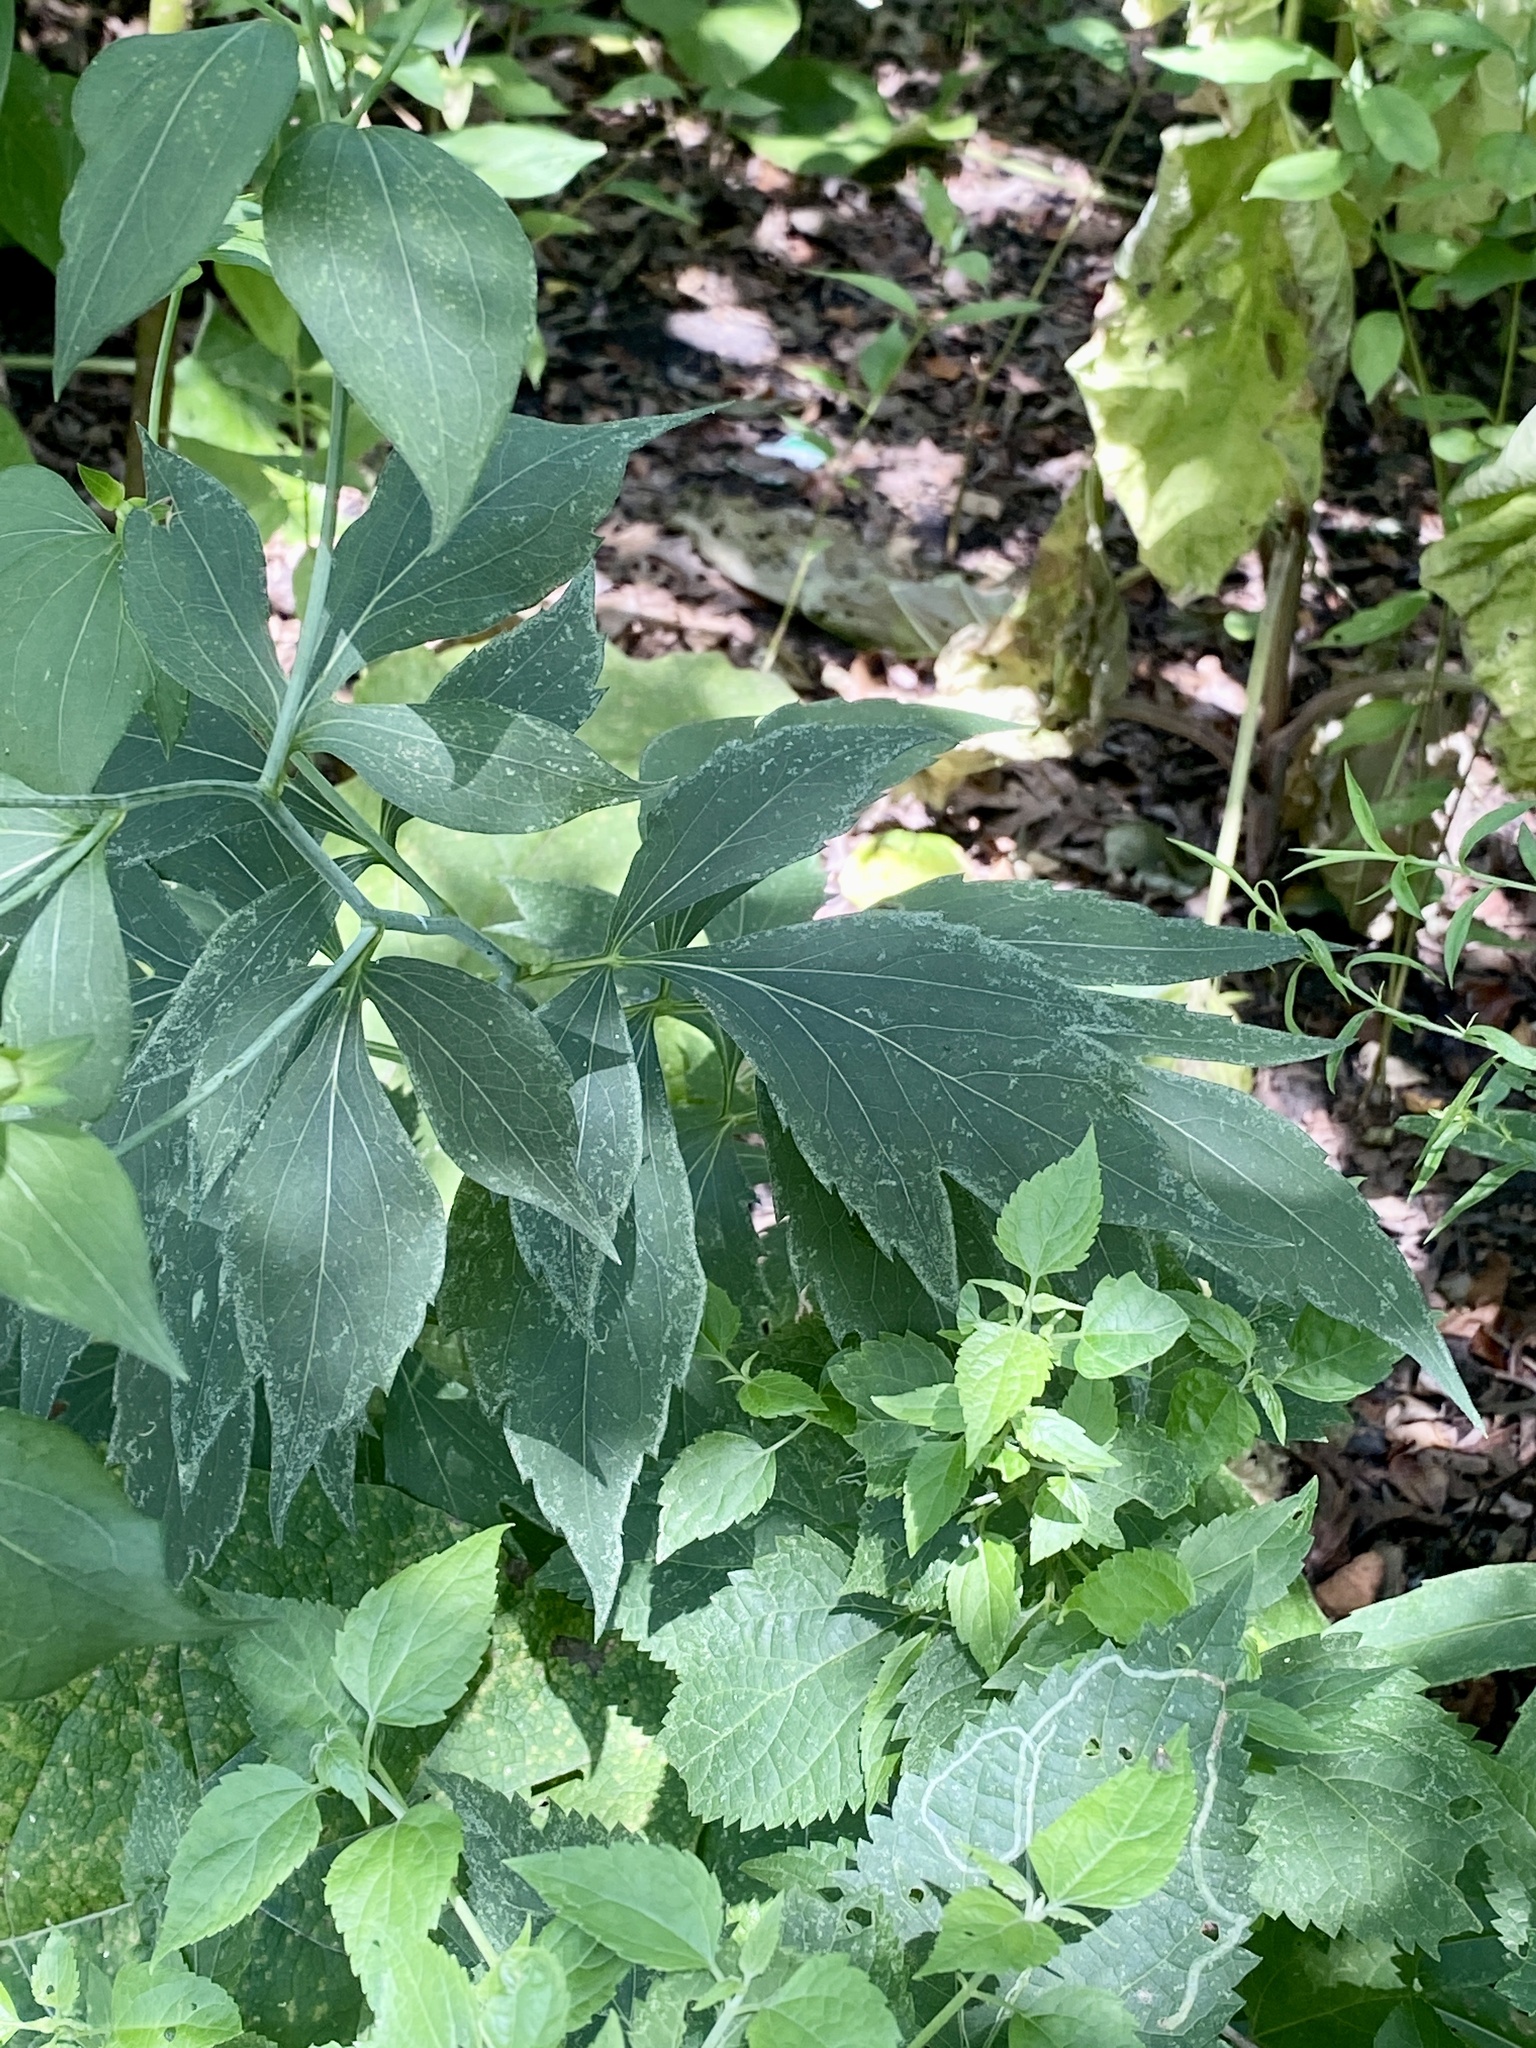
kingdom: Plantae
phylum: Tracheophyta
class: Magnoliopsida
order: Asterales
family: Asteraceae
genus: Rudbeckia
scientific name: Rudbeckia laciniata
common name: Coneflower
